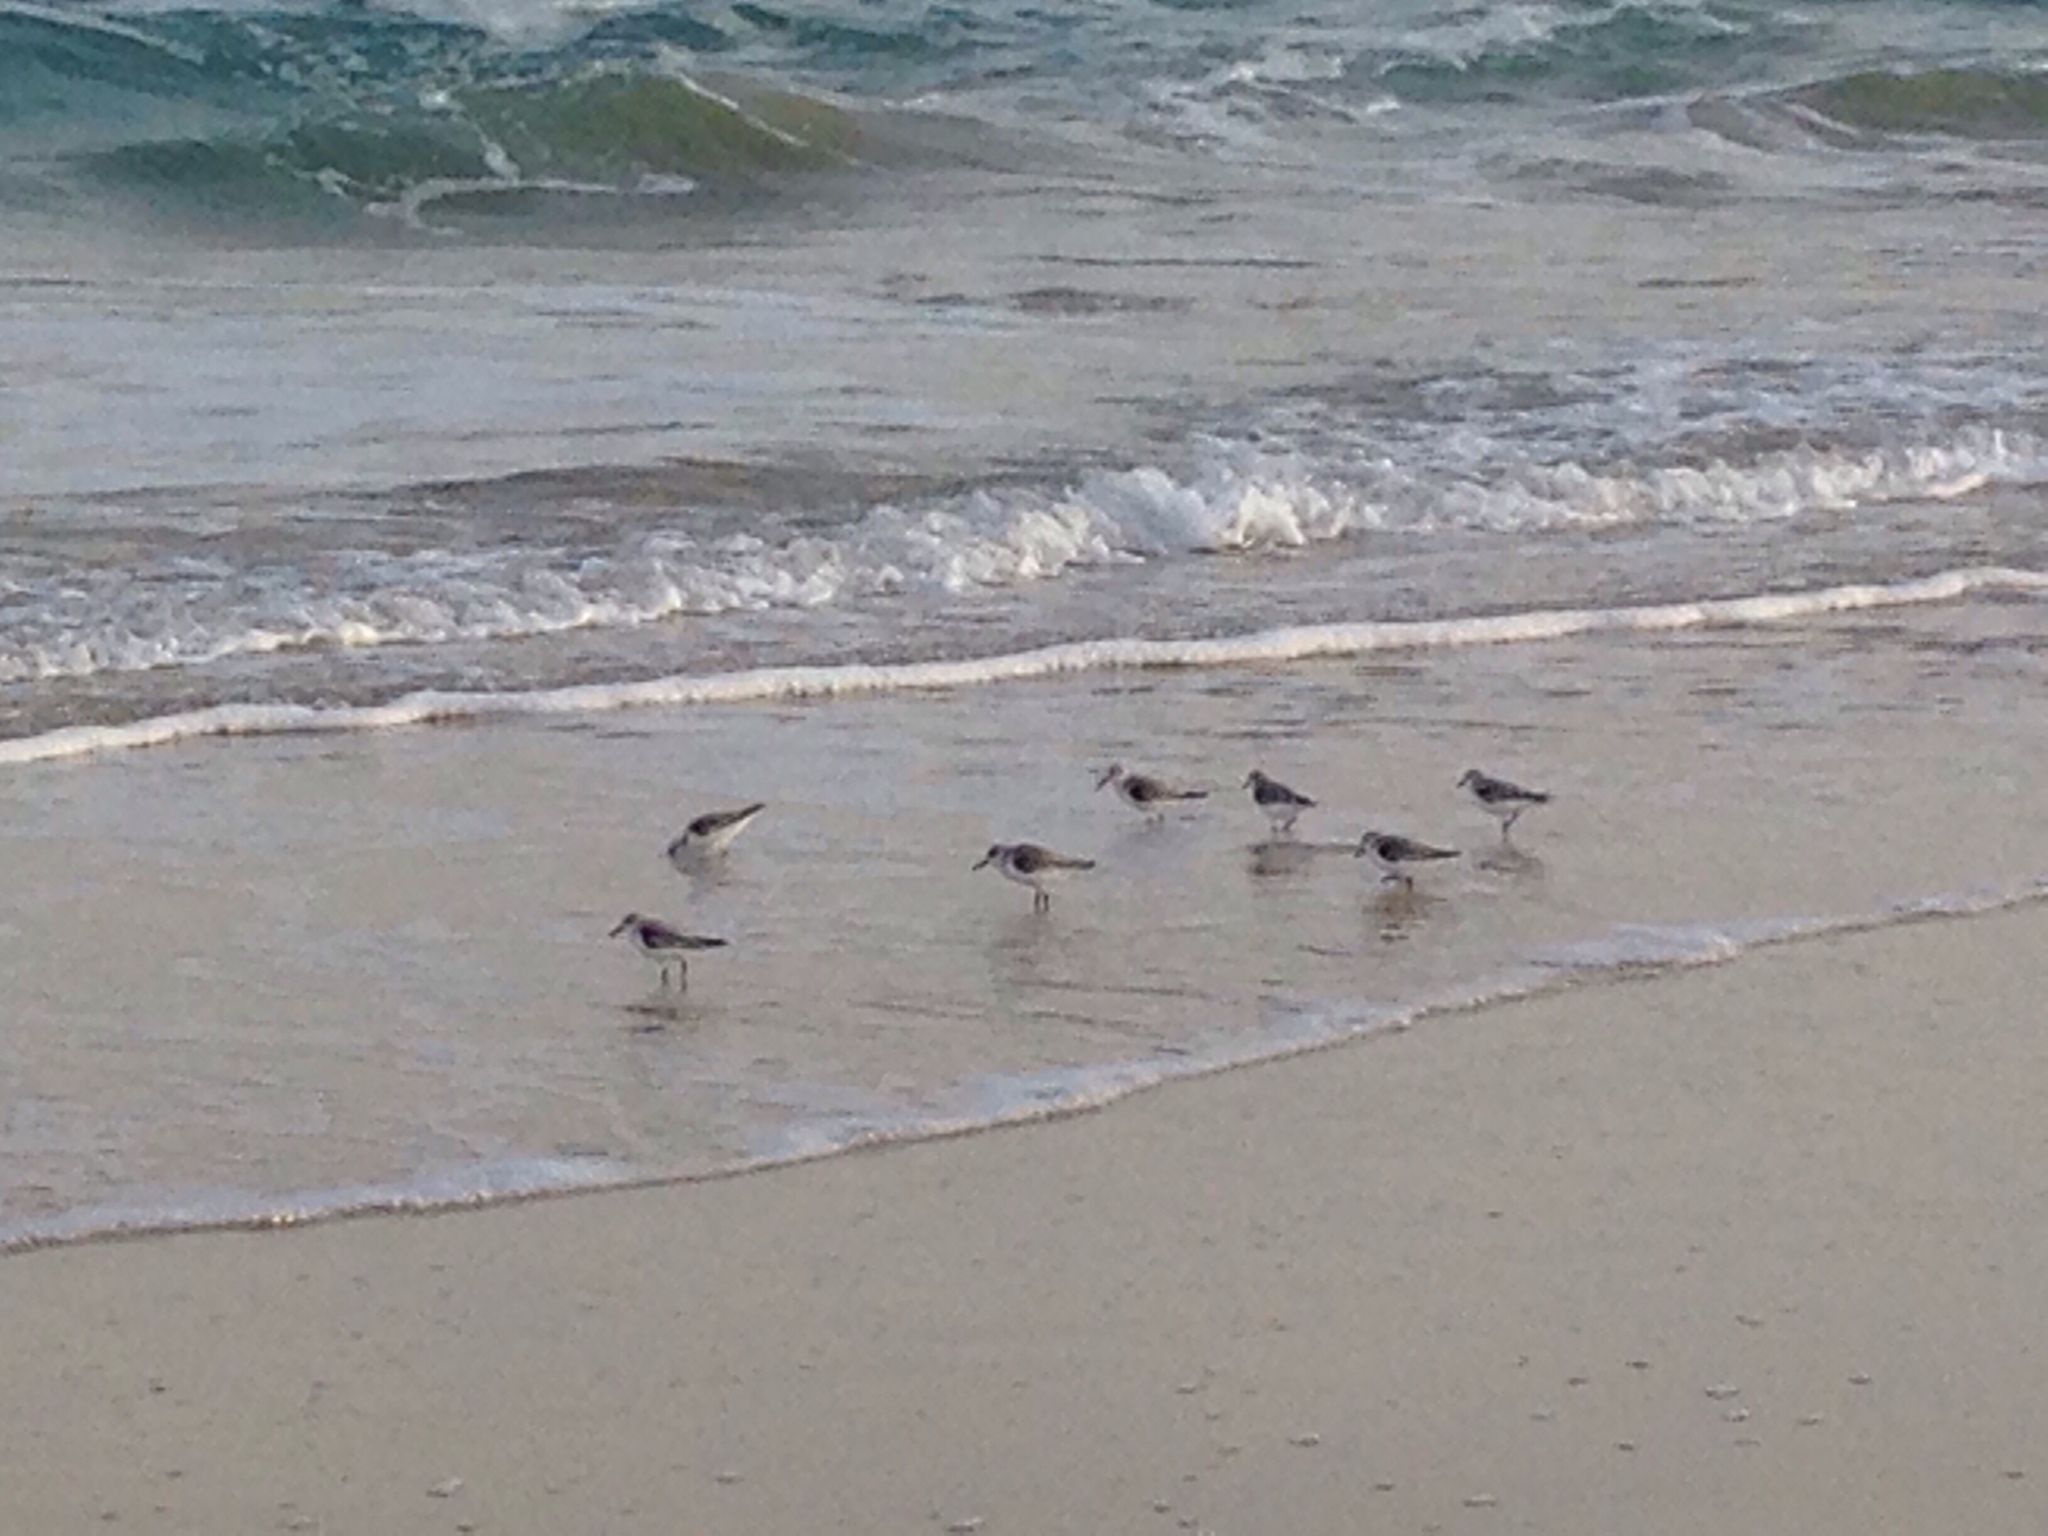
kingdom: Animalia
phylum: Chordata
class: Aves
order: Charadriiformes
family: Scolopacidae
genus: Calidris
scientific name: Calidris alba
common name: Sanderling
